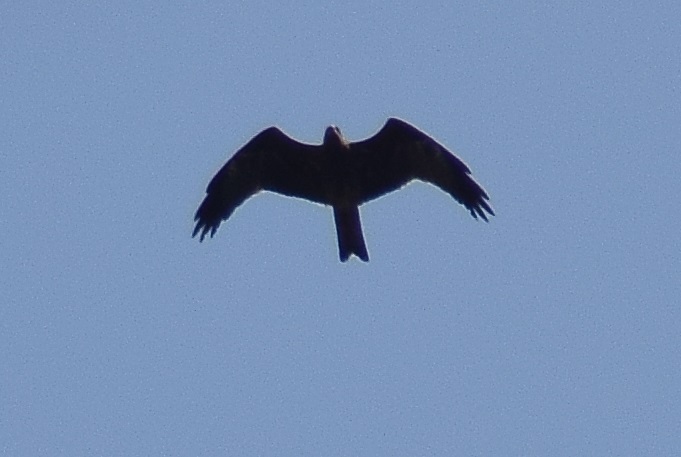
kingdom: Animalia
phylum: Chordata
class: Aves
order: Accipitriformes
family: Accipitridae
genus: Milvus
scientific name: Milvus migrans
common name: Black kite
